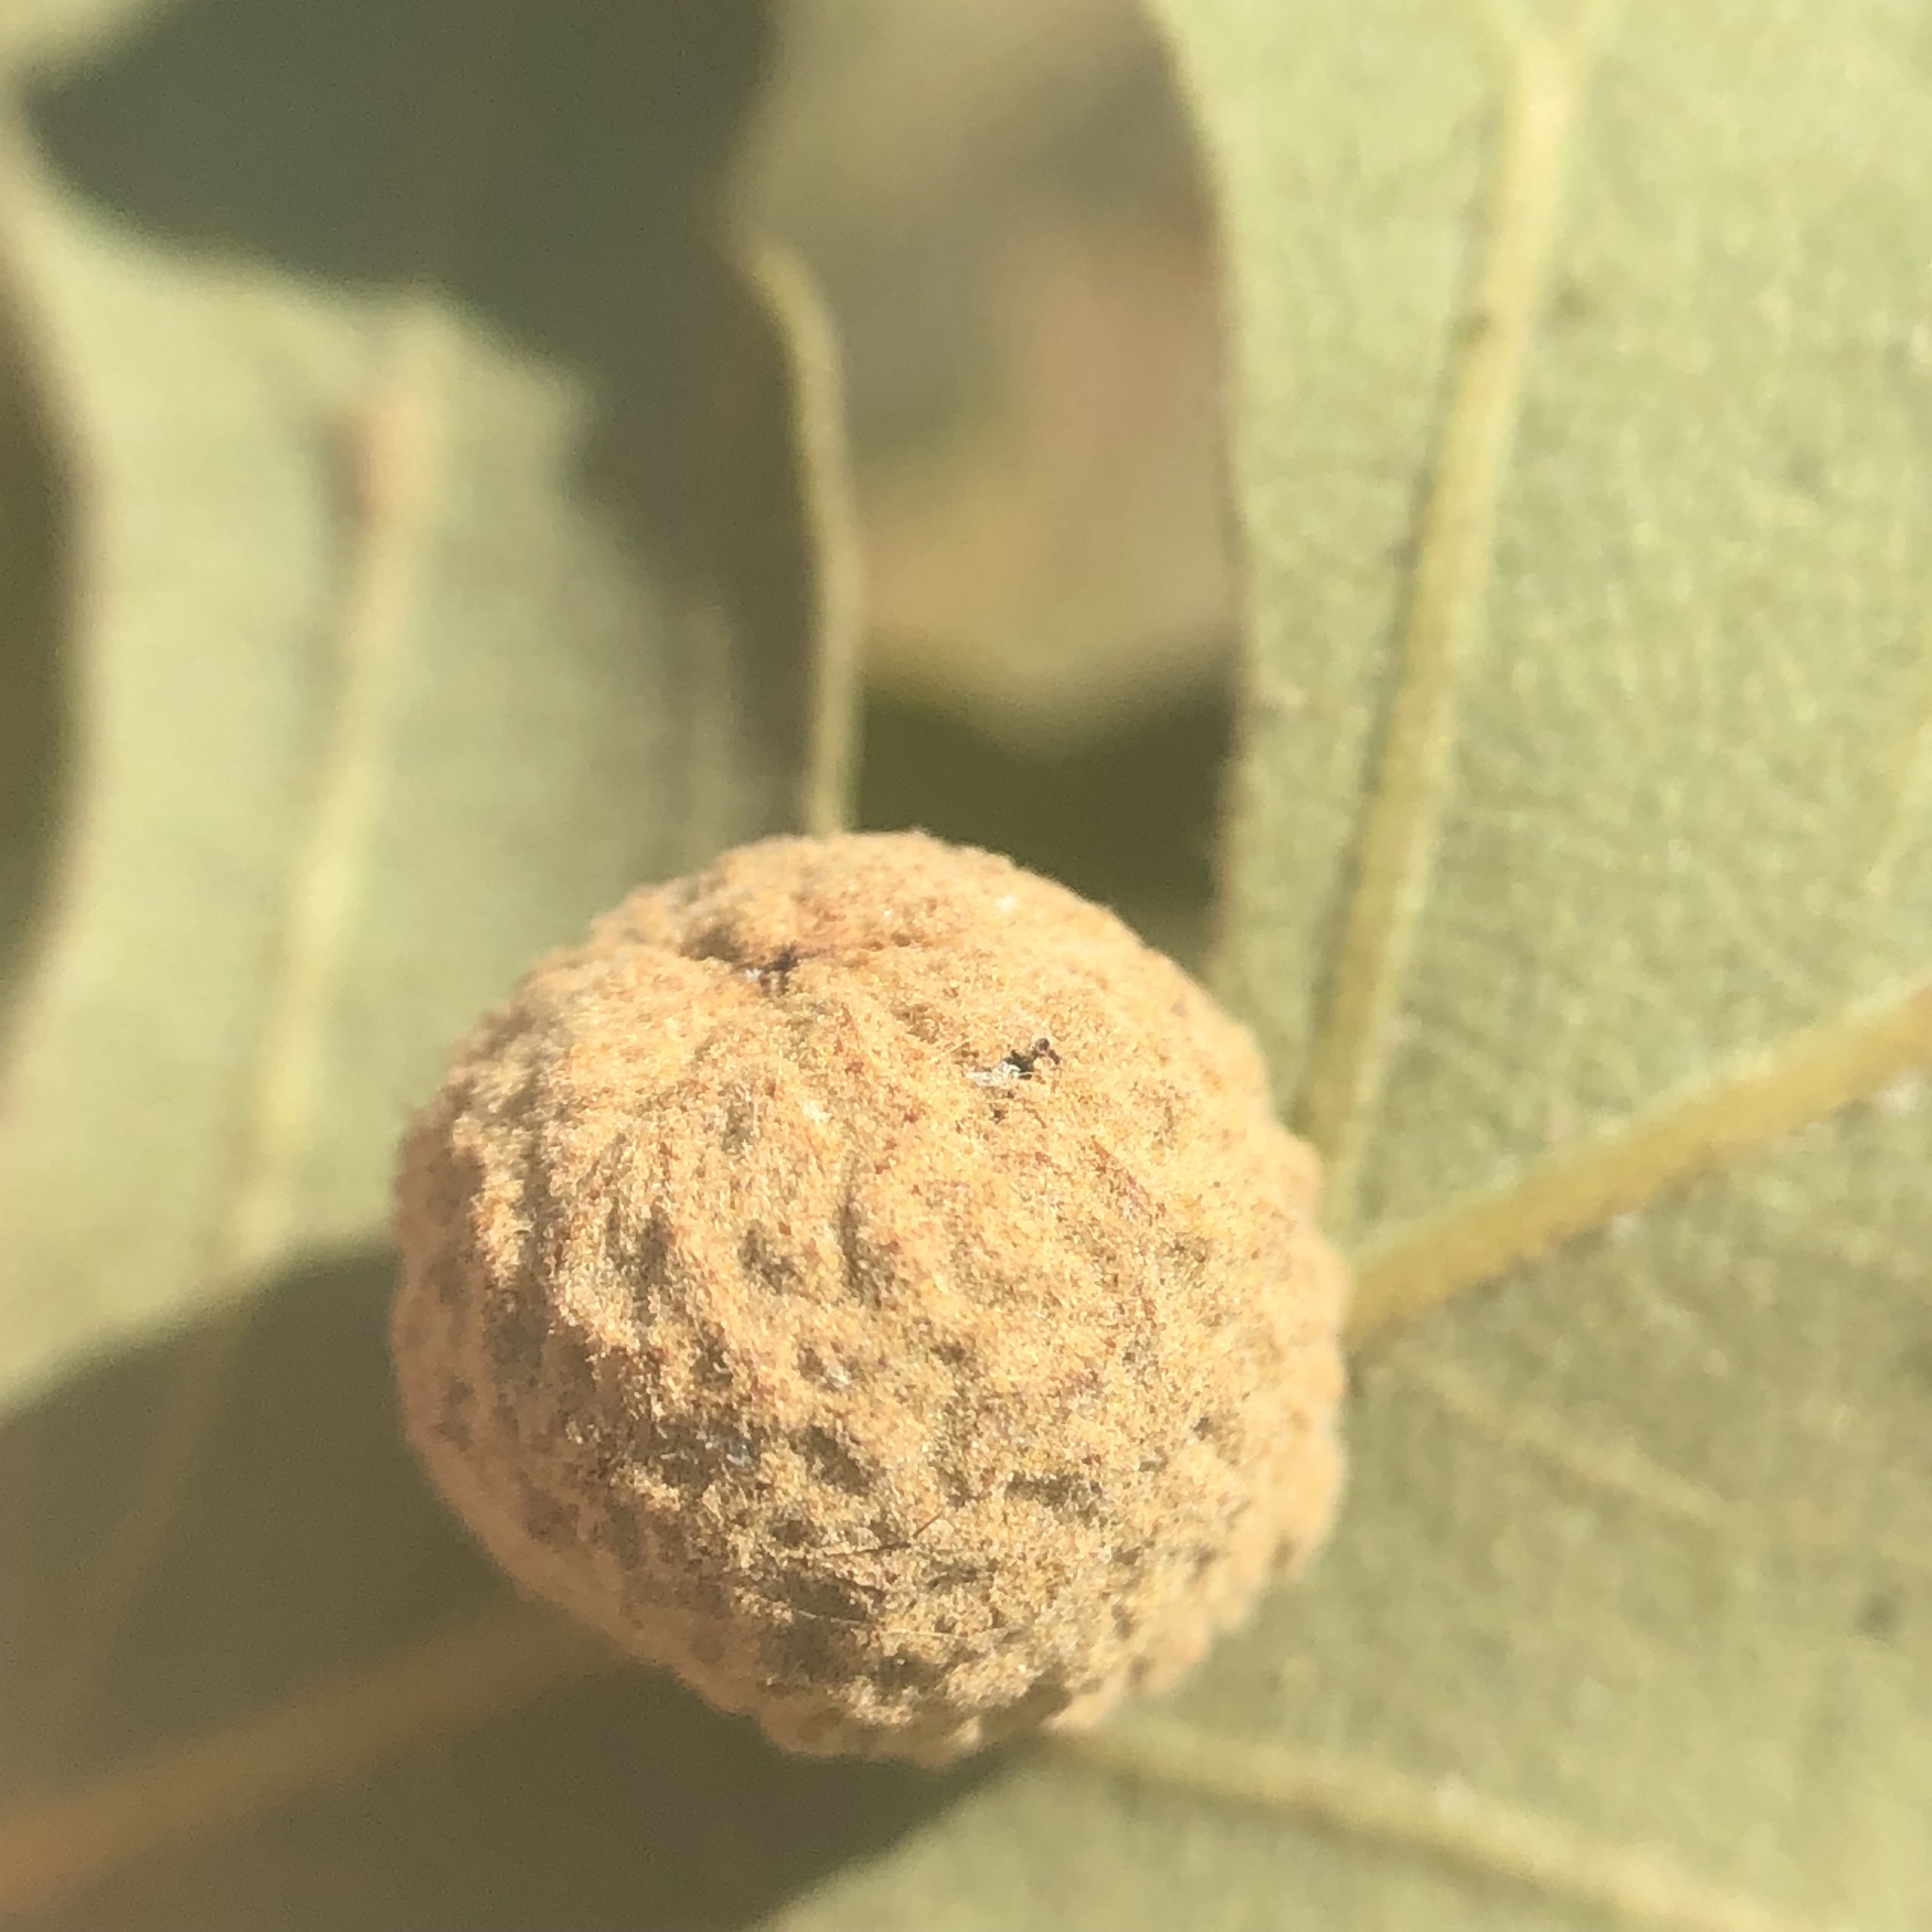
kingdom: Animalia
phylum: Arthropoda
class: Insecta
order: Hymenoptera
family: Cynipidae
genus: Cynips
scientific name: Cynips conspicua
